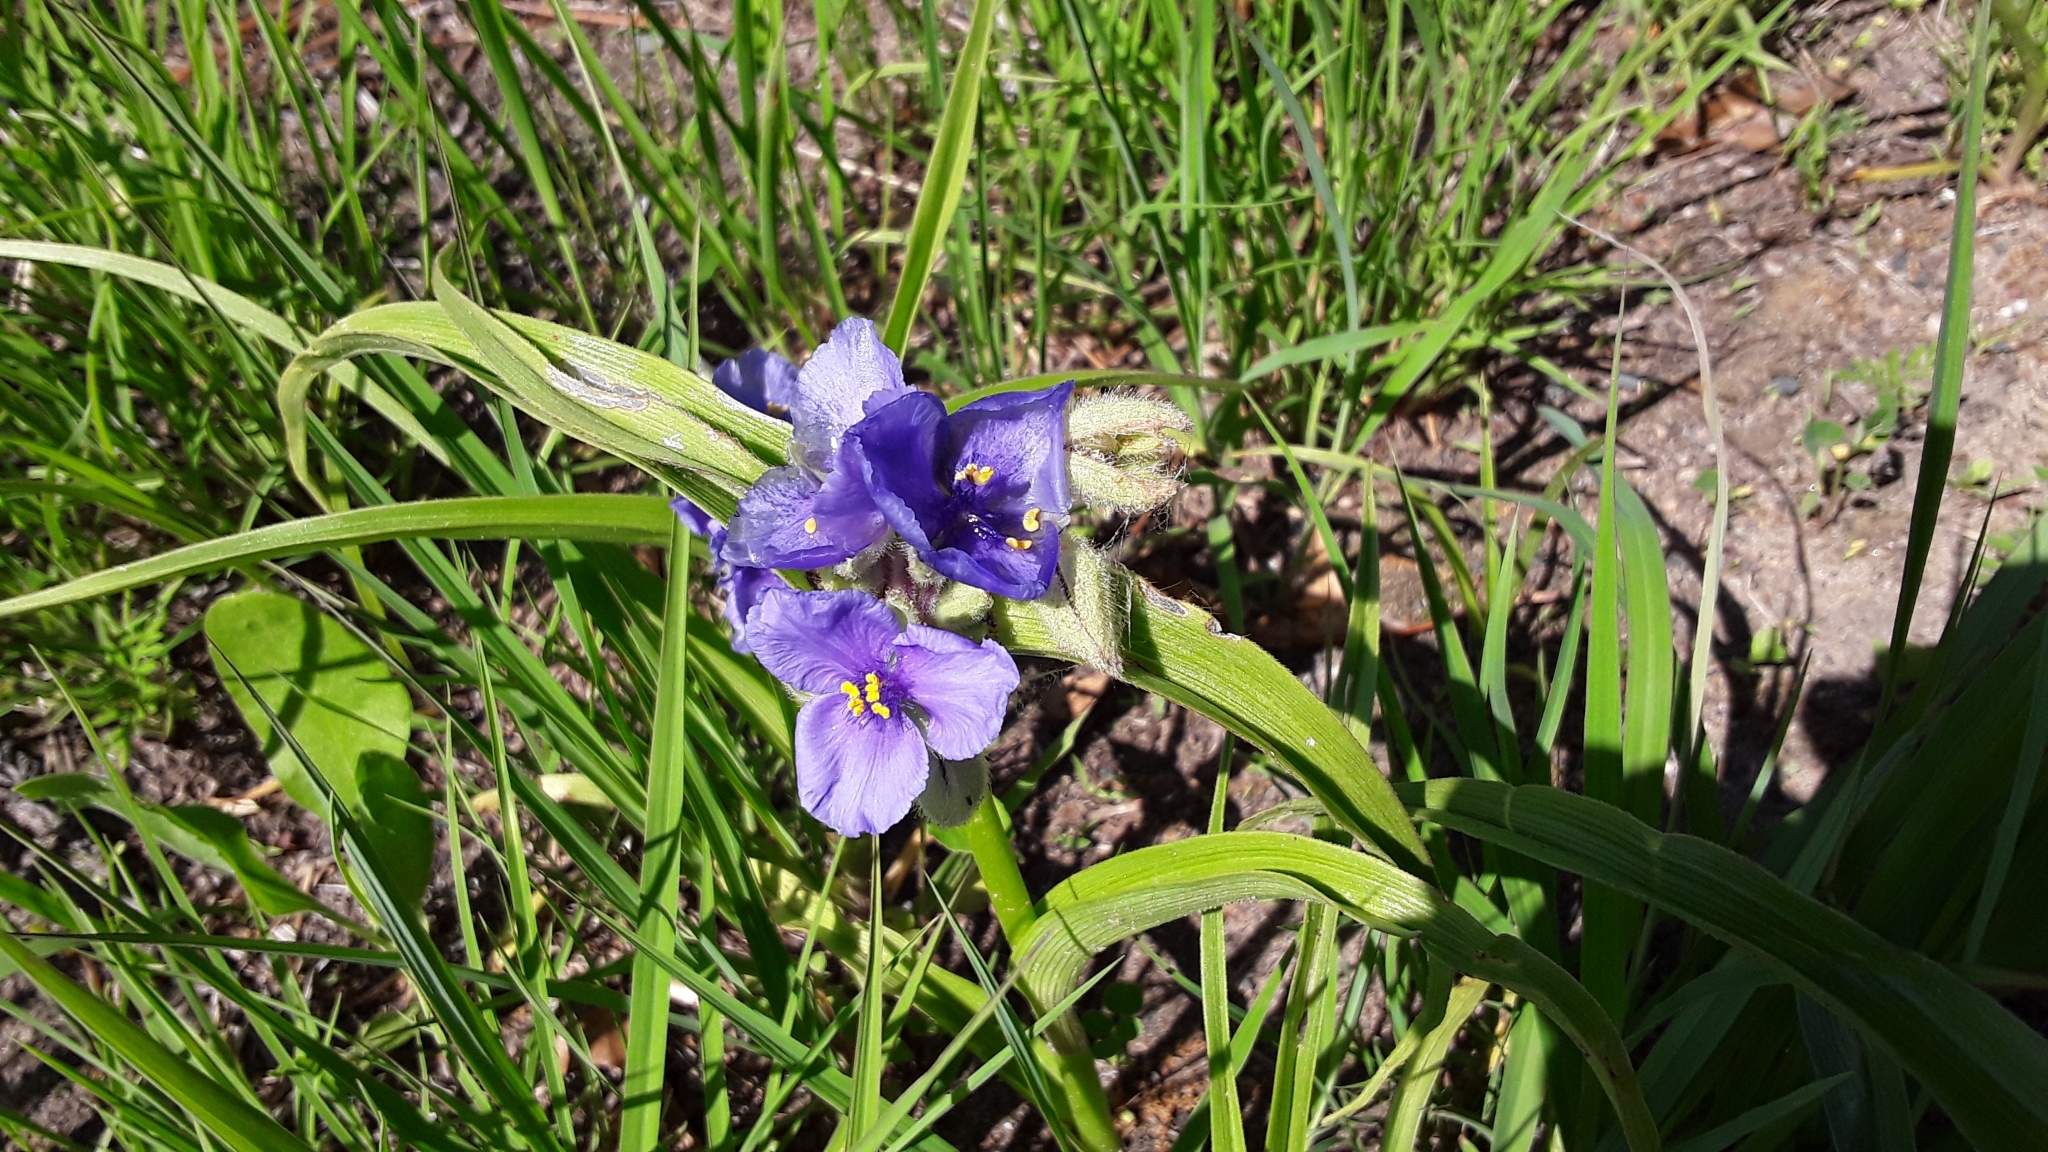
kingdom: Plantae
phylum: Tracheophyta
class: Liliopsida
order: Commelinales
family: Commelinaceae
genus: Tradescantia
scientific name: Tradescantia bracteata
